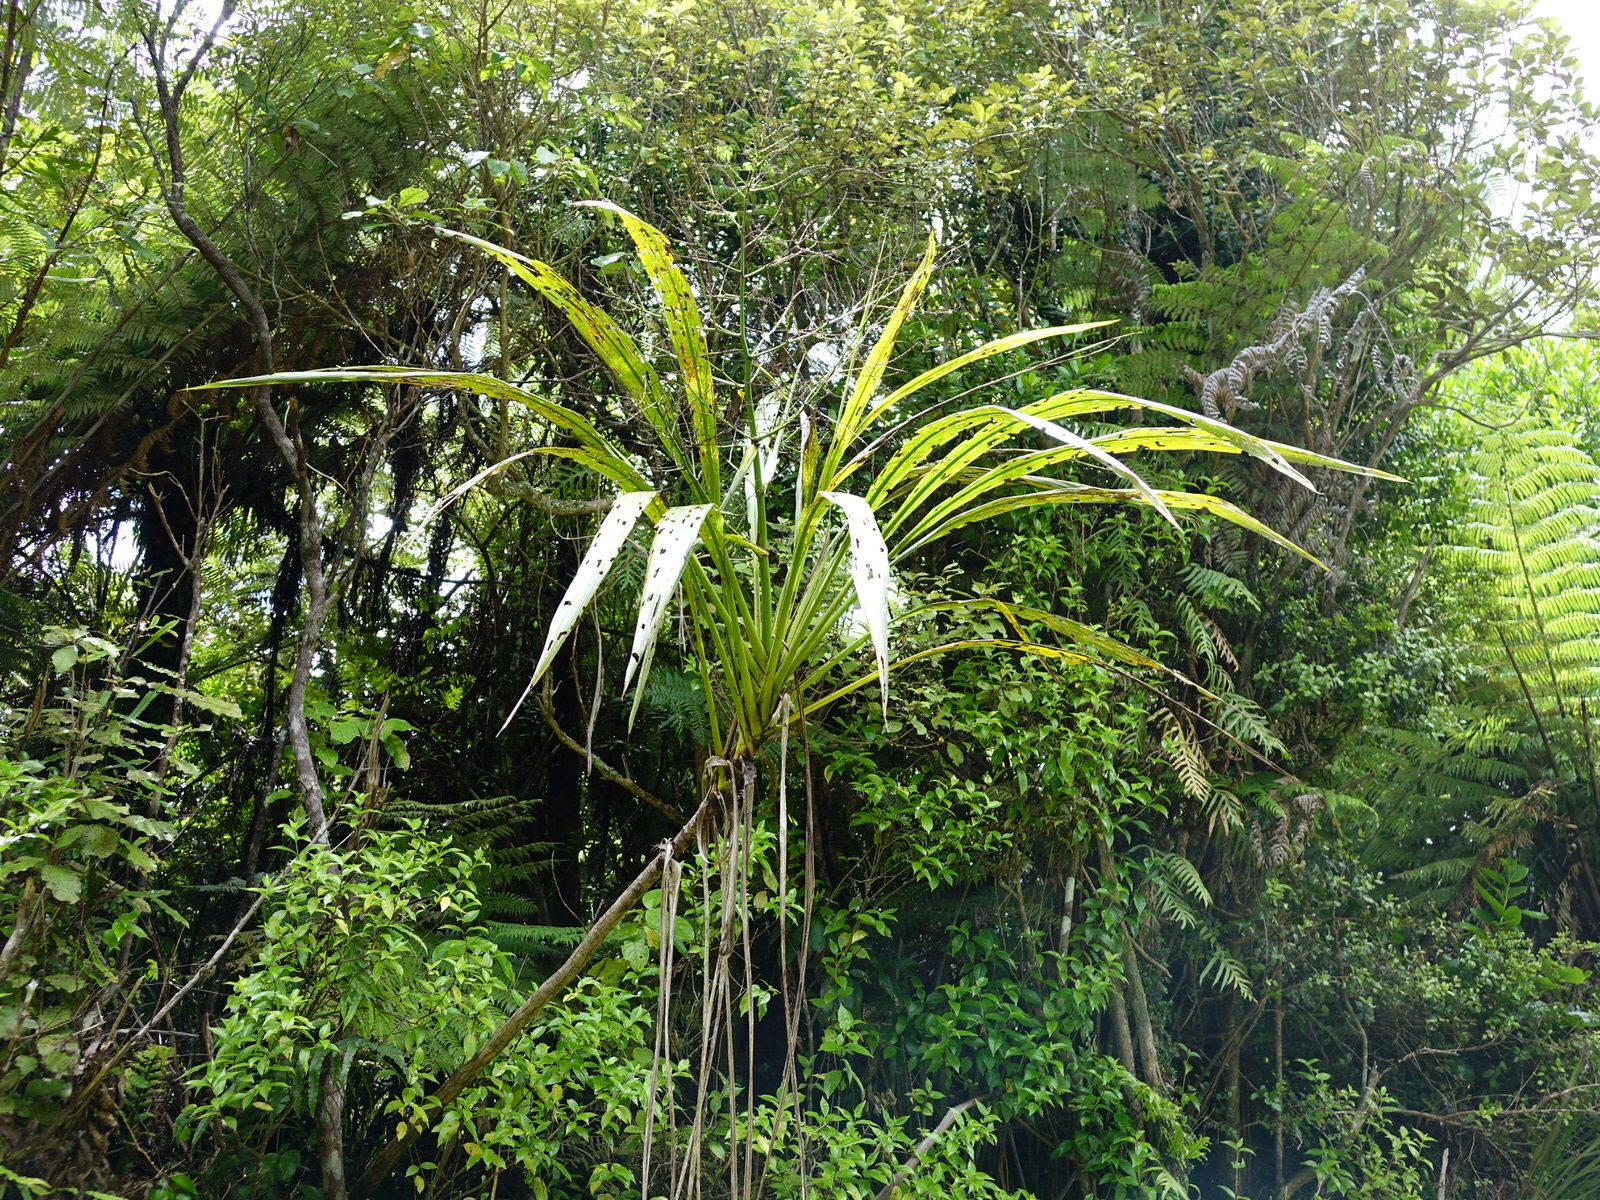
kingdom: Plantae
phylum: Tracheophyta
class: Liliopsida
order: Asparagales
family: Asparagaceae
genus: Cordyline
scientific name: Cordyline banksii
